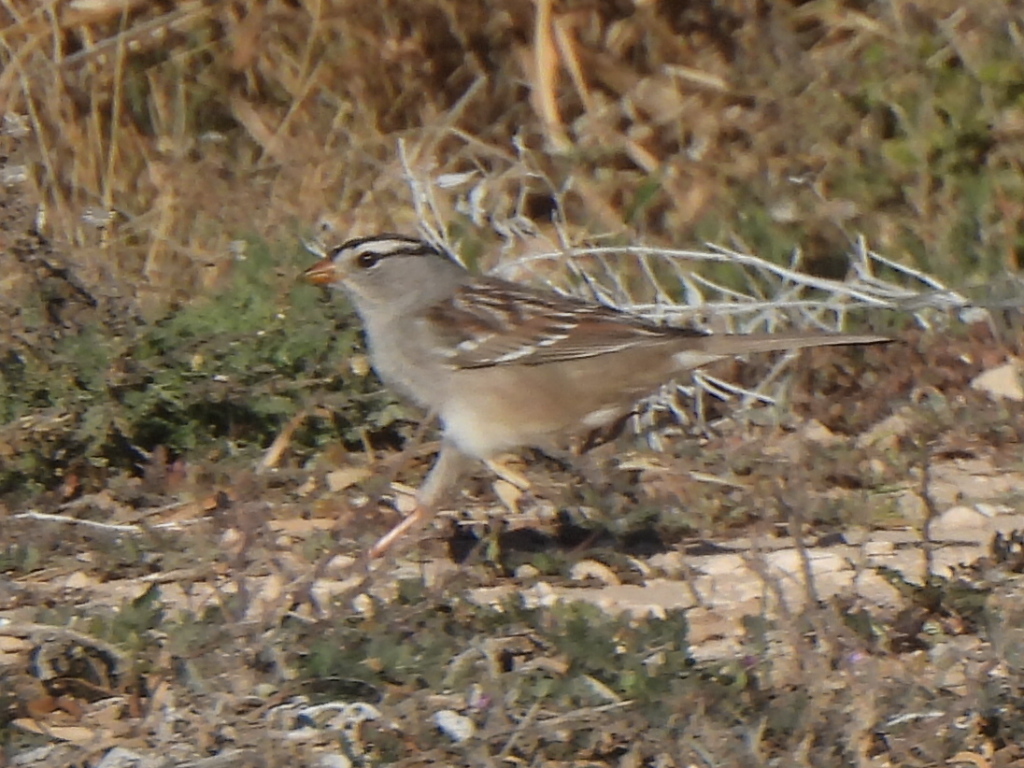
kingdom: Animalia
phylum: Chordata
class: Aves
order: Passeriformes
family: Passerellidae
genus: Zonotrichia
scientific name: Zonotrichia leucophrys
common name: White-crowned sparrow
